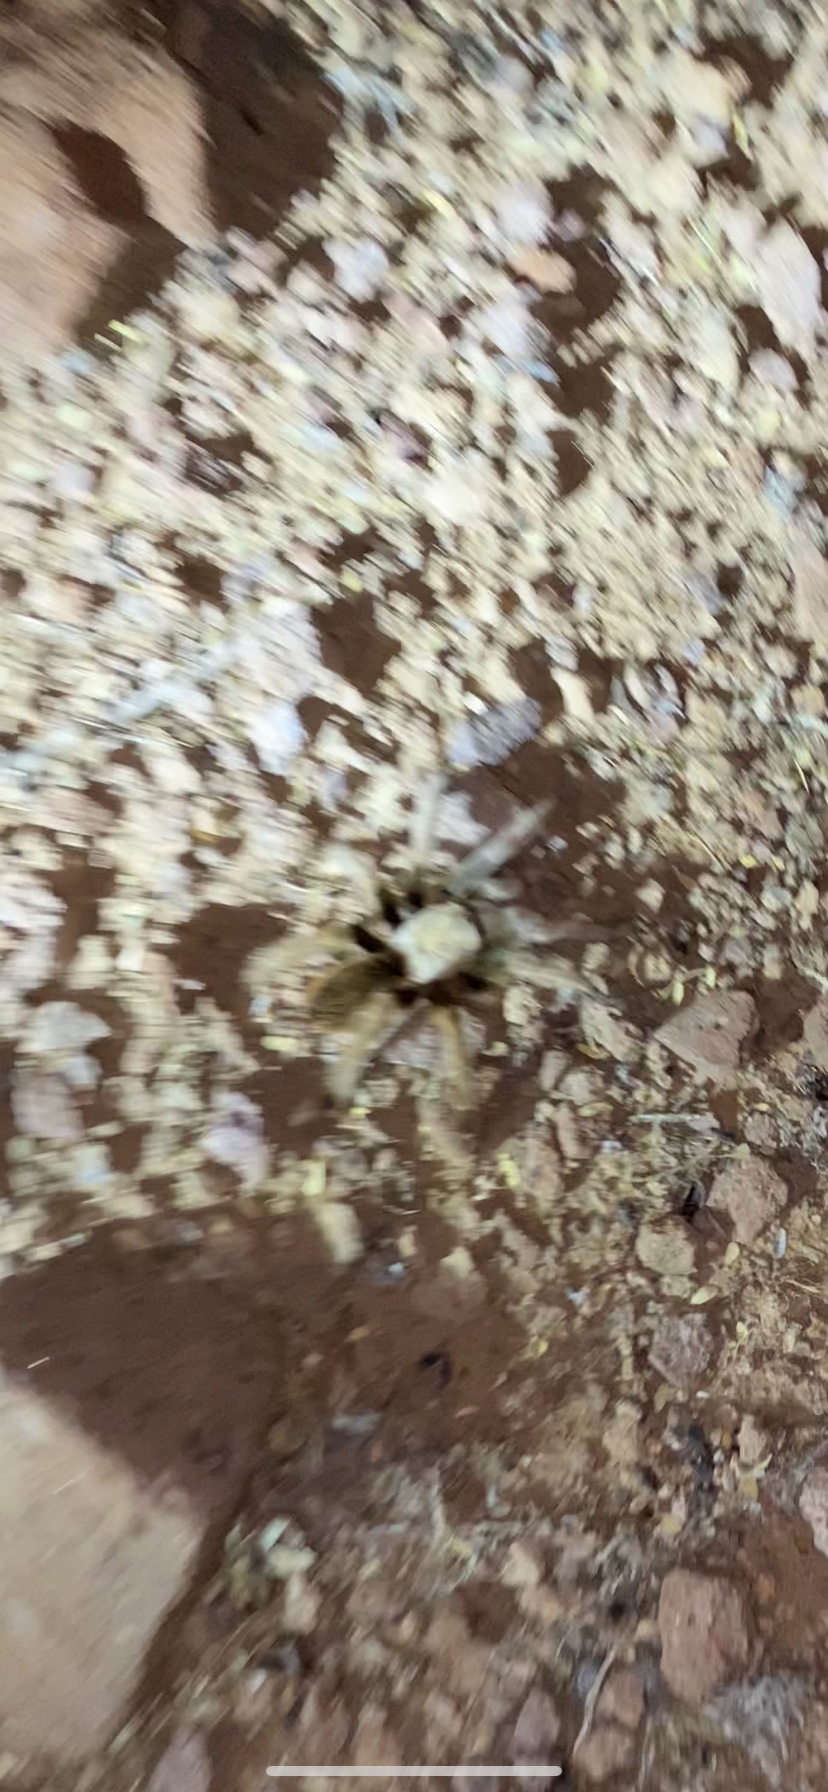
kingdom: Animalia
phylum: Arthropoda
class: Arachnida
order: Araneae
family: Theraphosidae
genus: Aphonopelma
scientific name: Aphonopelma chalcodes
